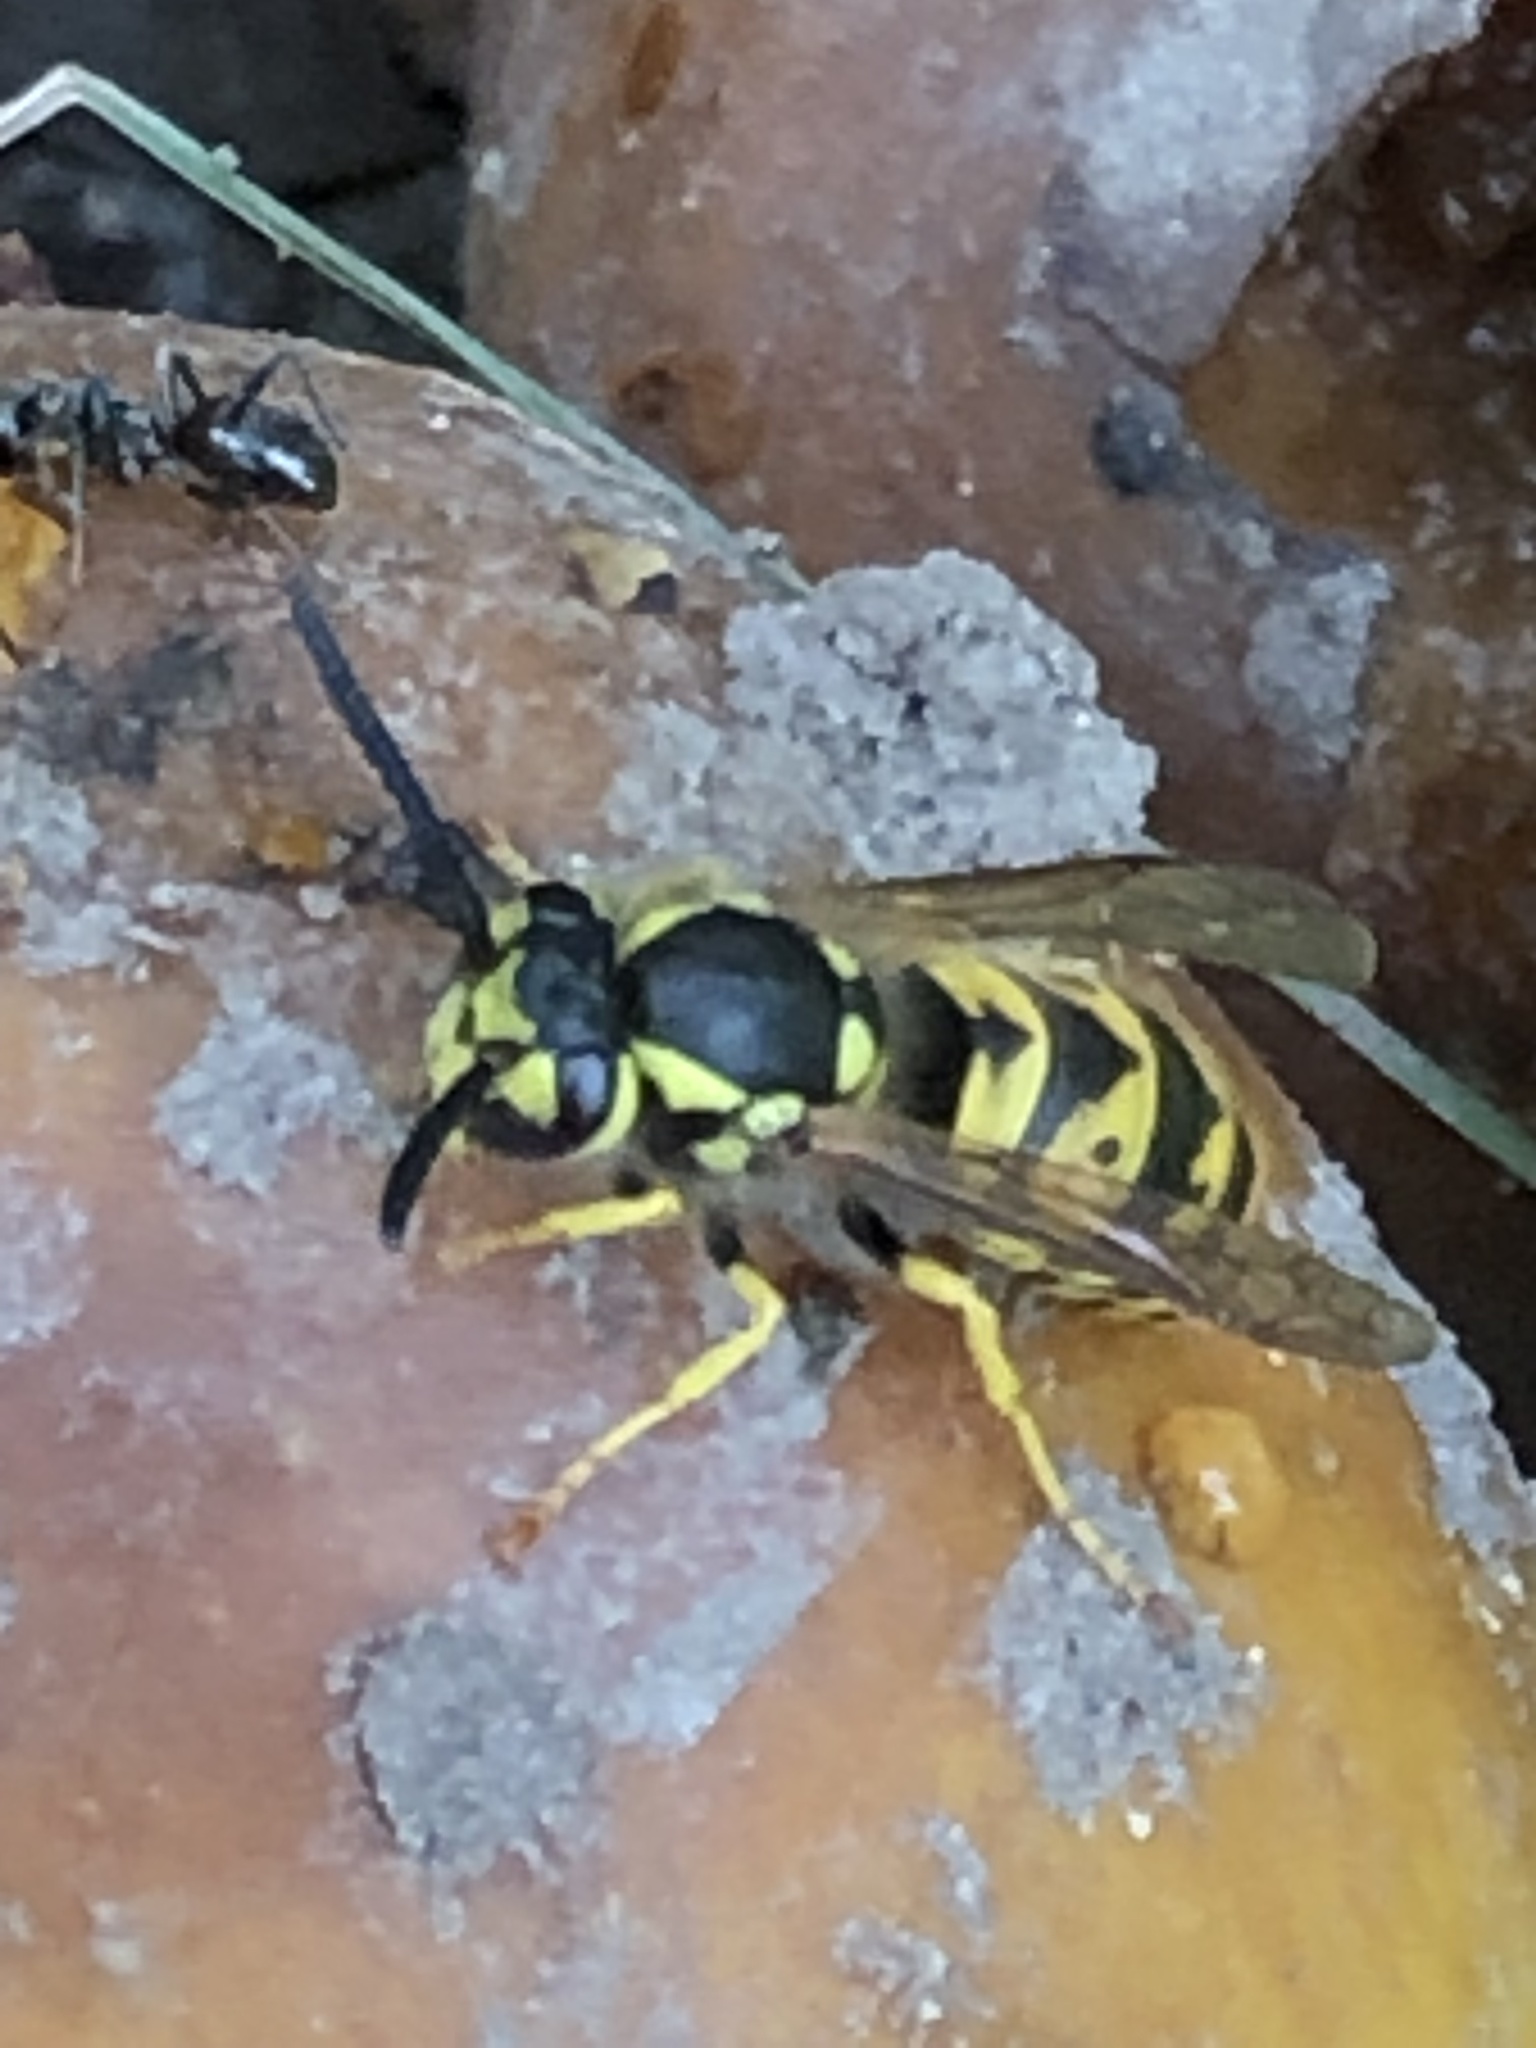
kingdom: Animalia
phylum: Arthropoda
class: Insecta
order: Hymenoptera
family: Vespidae
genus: Vespula
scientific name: Vespula germanica
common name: German wasp
